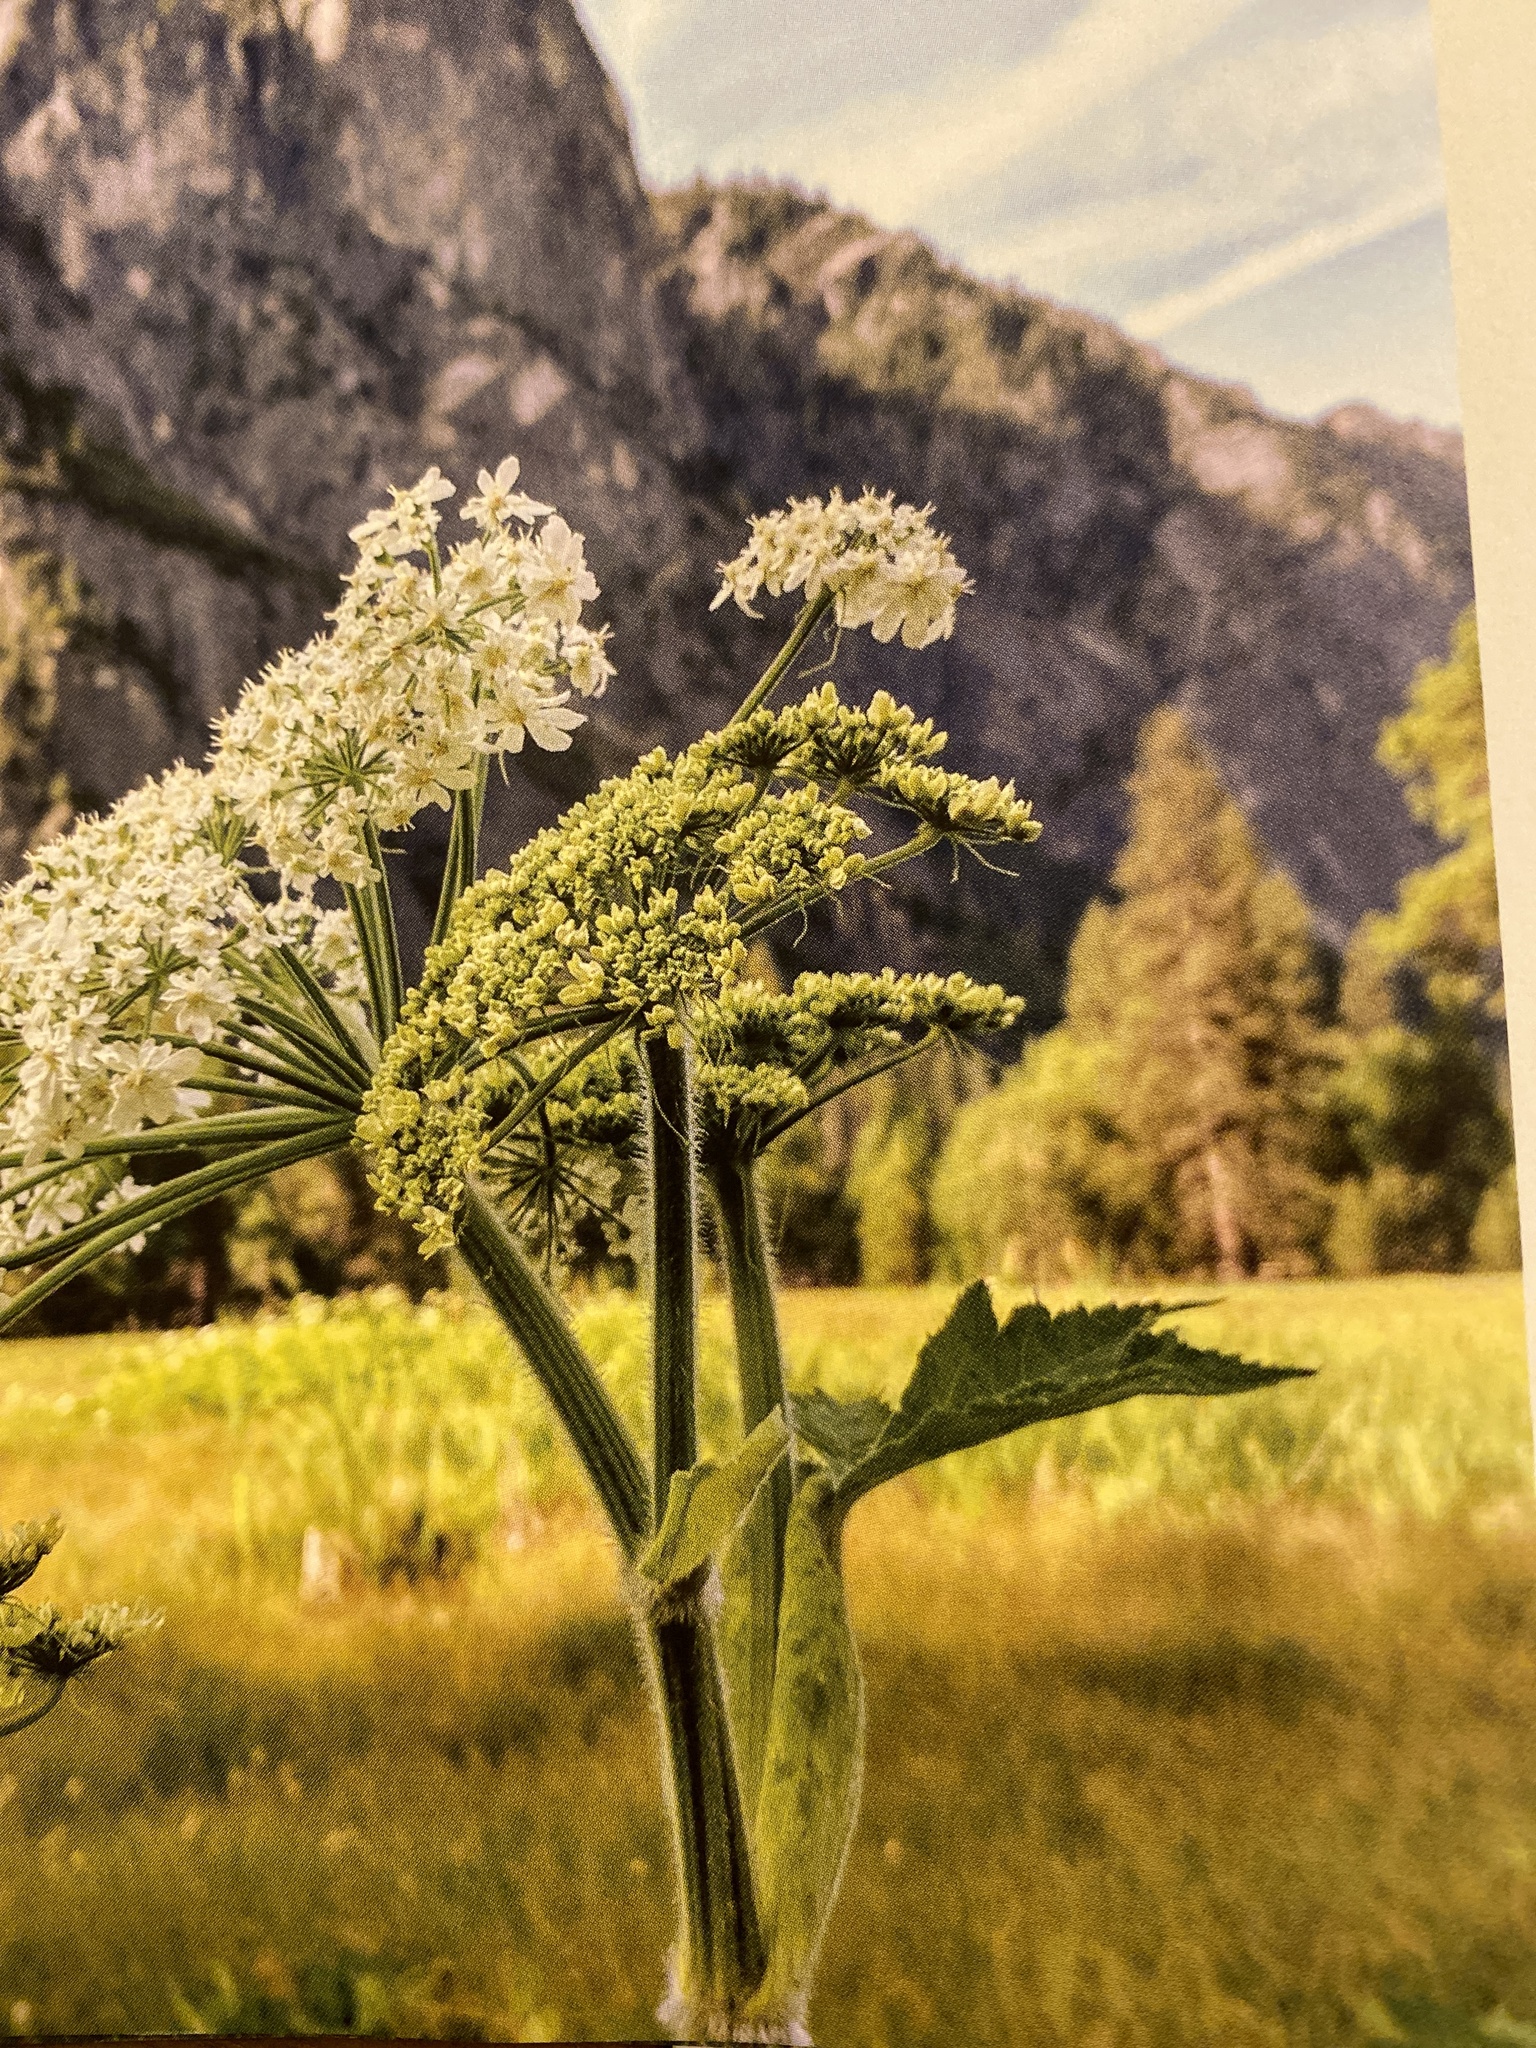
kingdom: Plantae
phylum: Tracheophyta
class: Magnoliopsida
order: Apiales
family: Apiaceae
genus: Heracleum
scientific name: Heracleum maximum
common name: American cow parsnip
